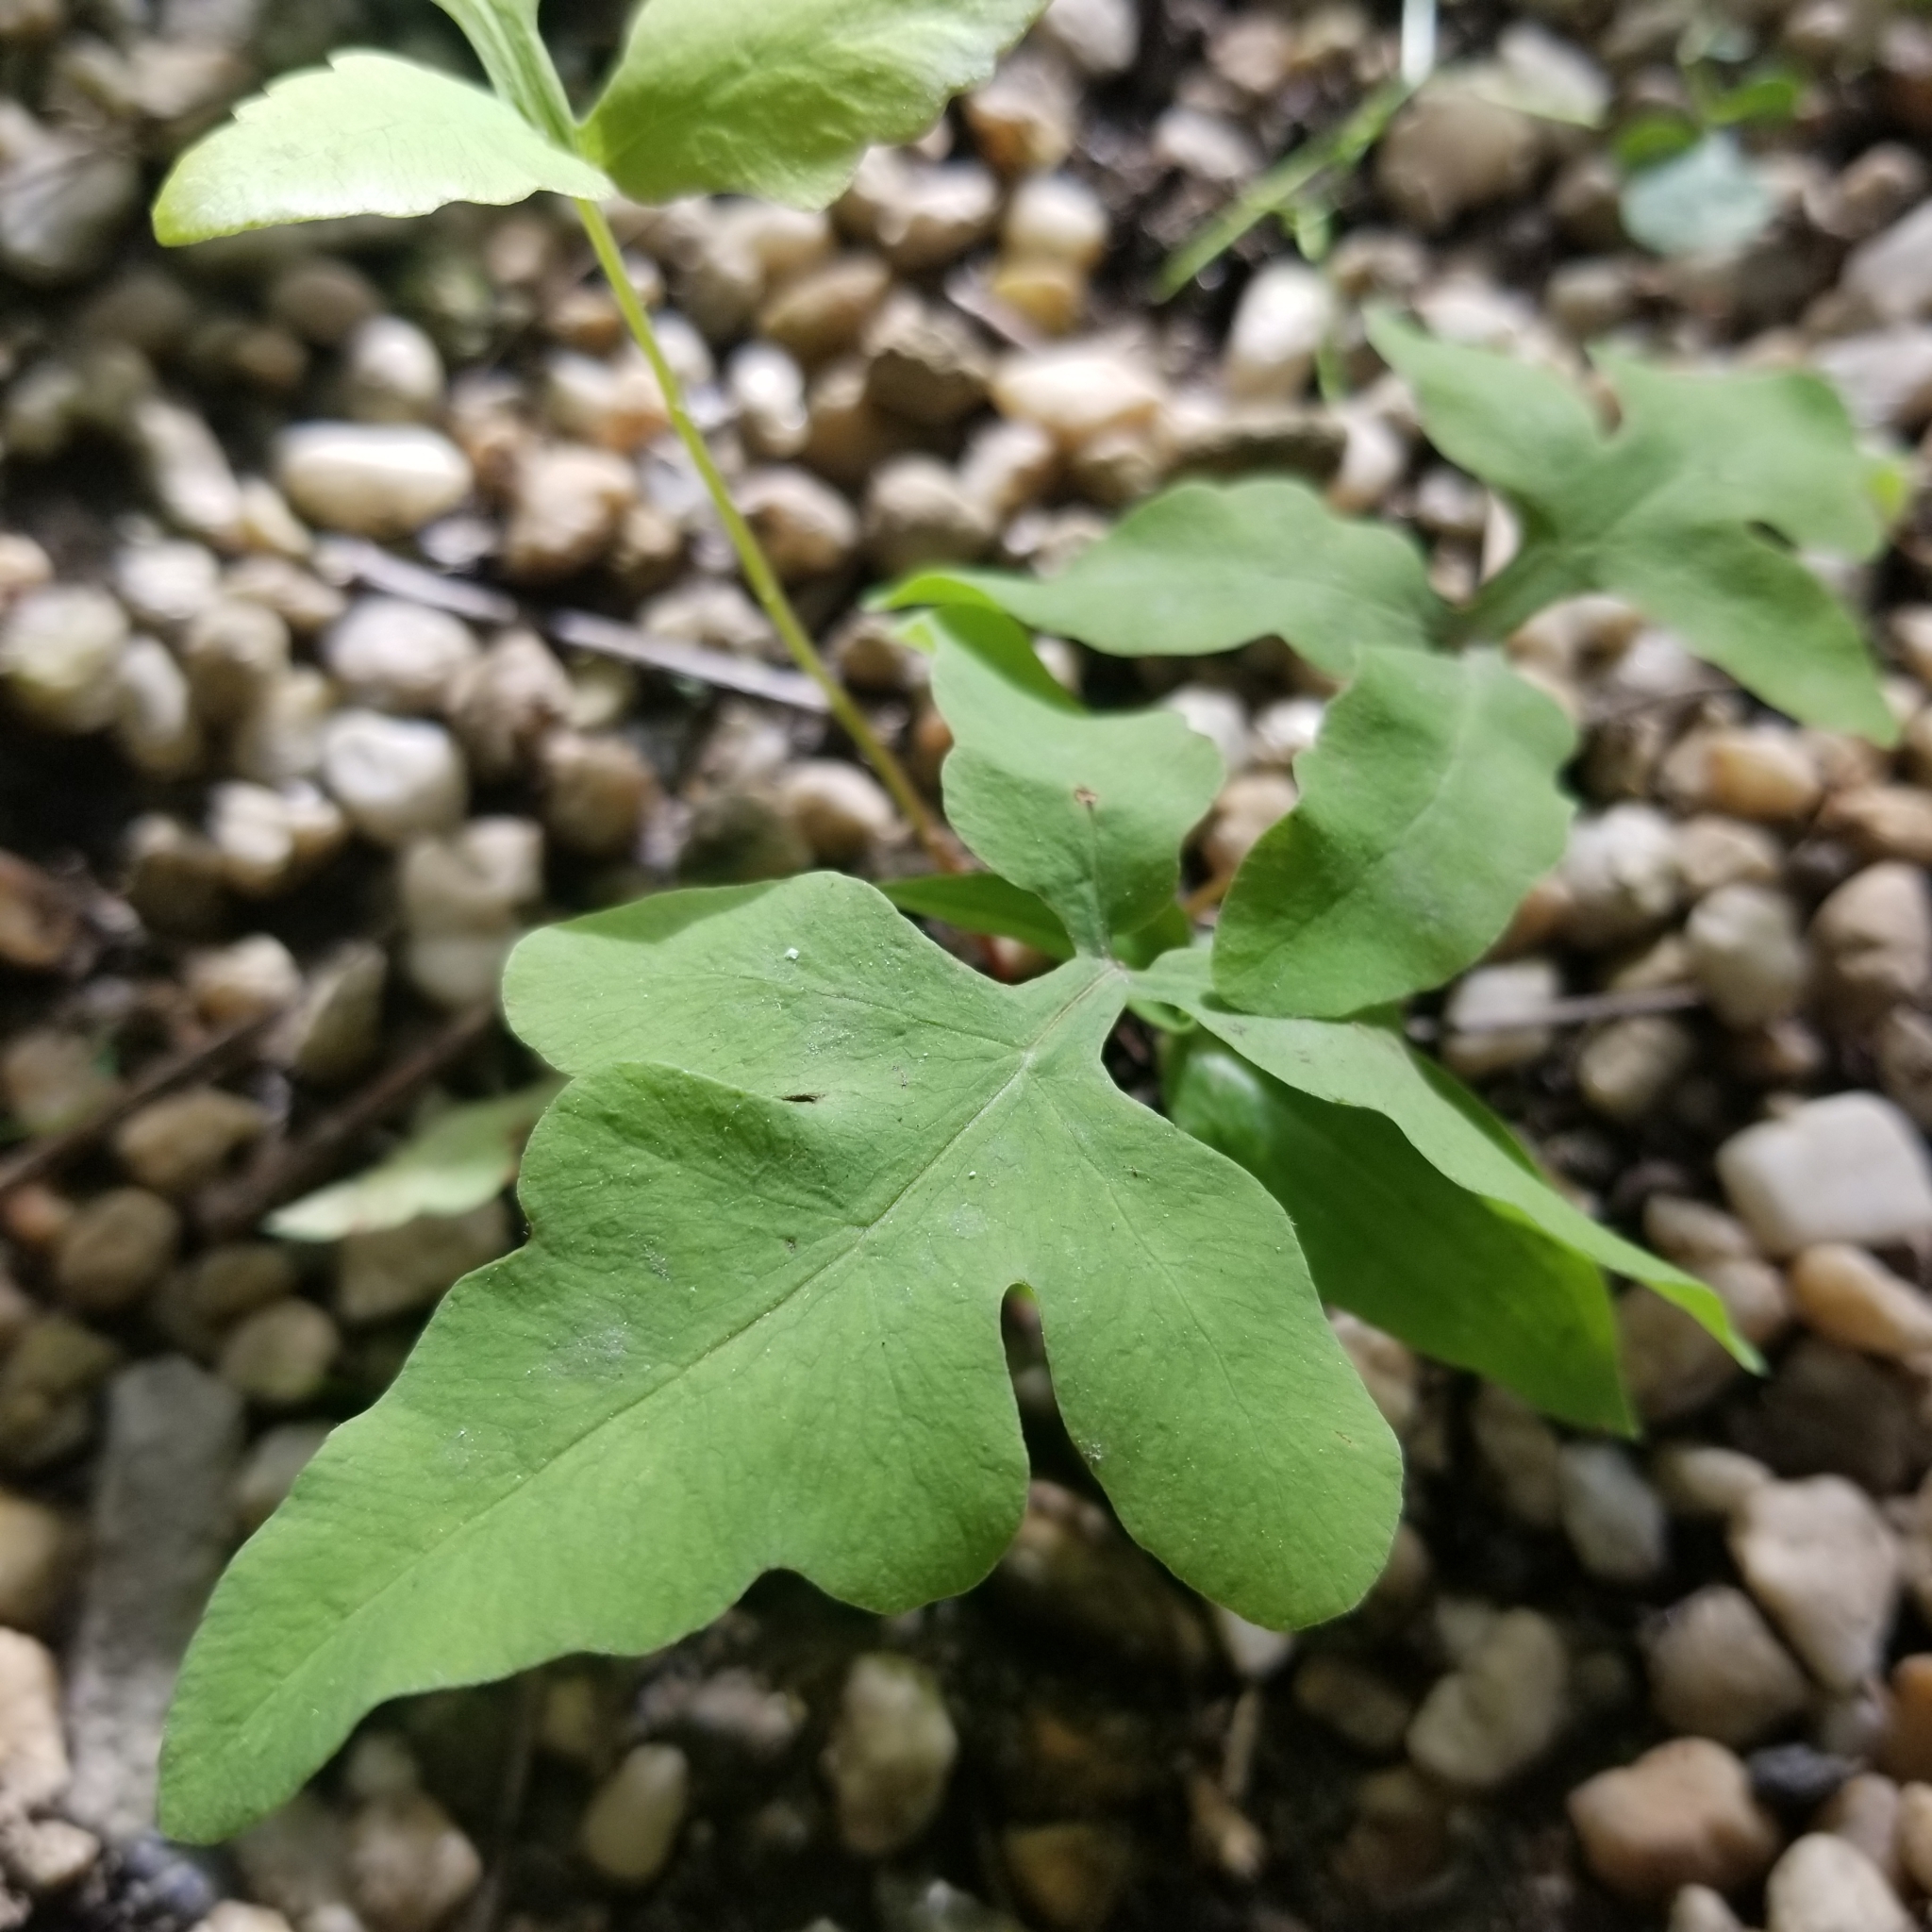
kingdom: Plantae
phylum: Tracheophyta
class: Polypodiopsida
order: Polypodiales
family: Onocleaceae
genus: Onoclea
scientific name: Onoclea sensibilis
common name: Sensitive fern
